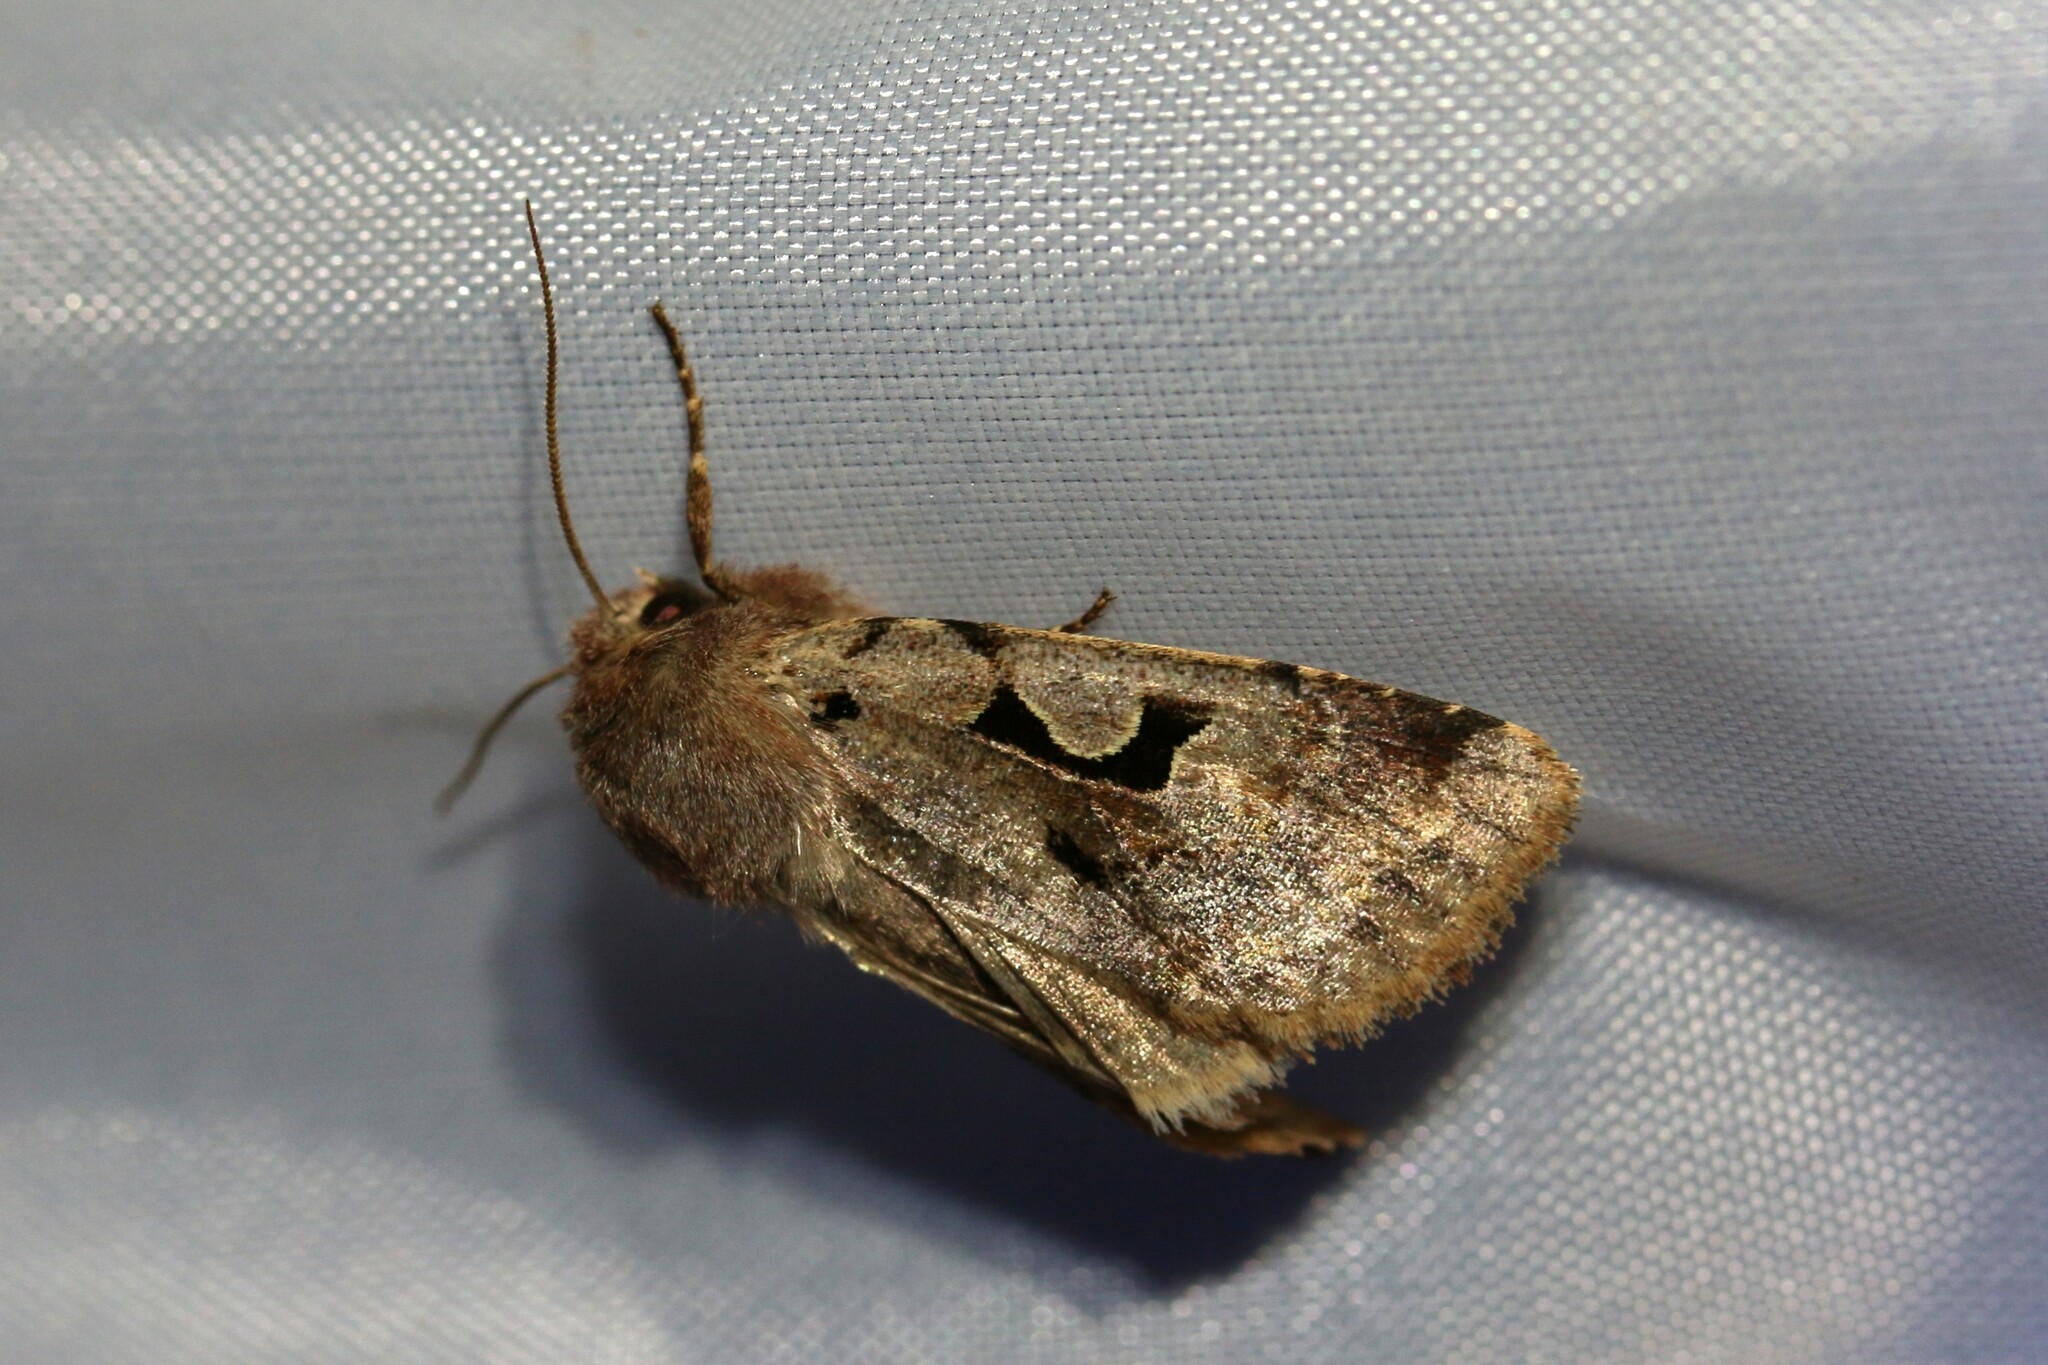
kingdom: Animalia
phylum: Arthropoda
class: Insecta
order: Lepidoptera
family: Noctuidae
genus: Orthosia
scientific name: Orthosia gothica
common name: Hebrew character
